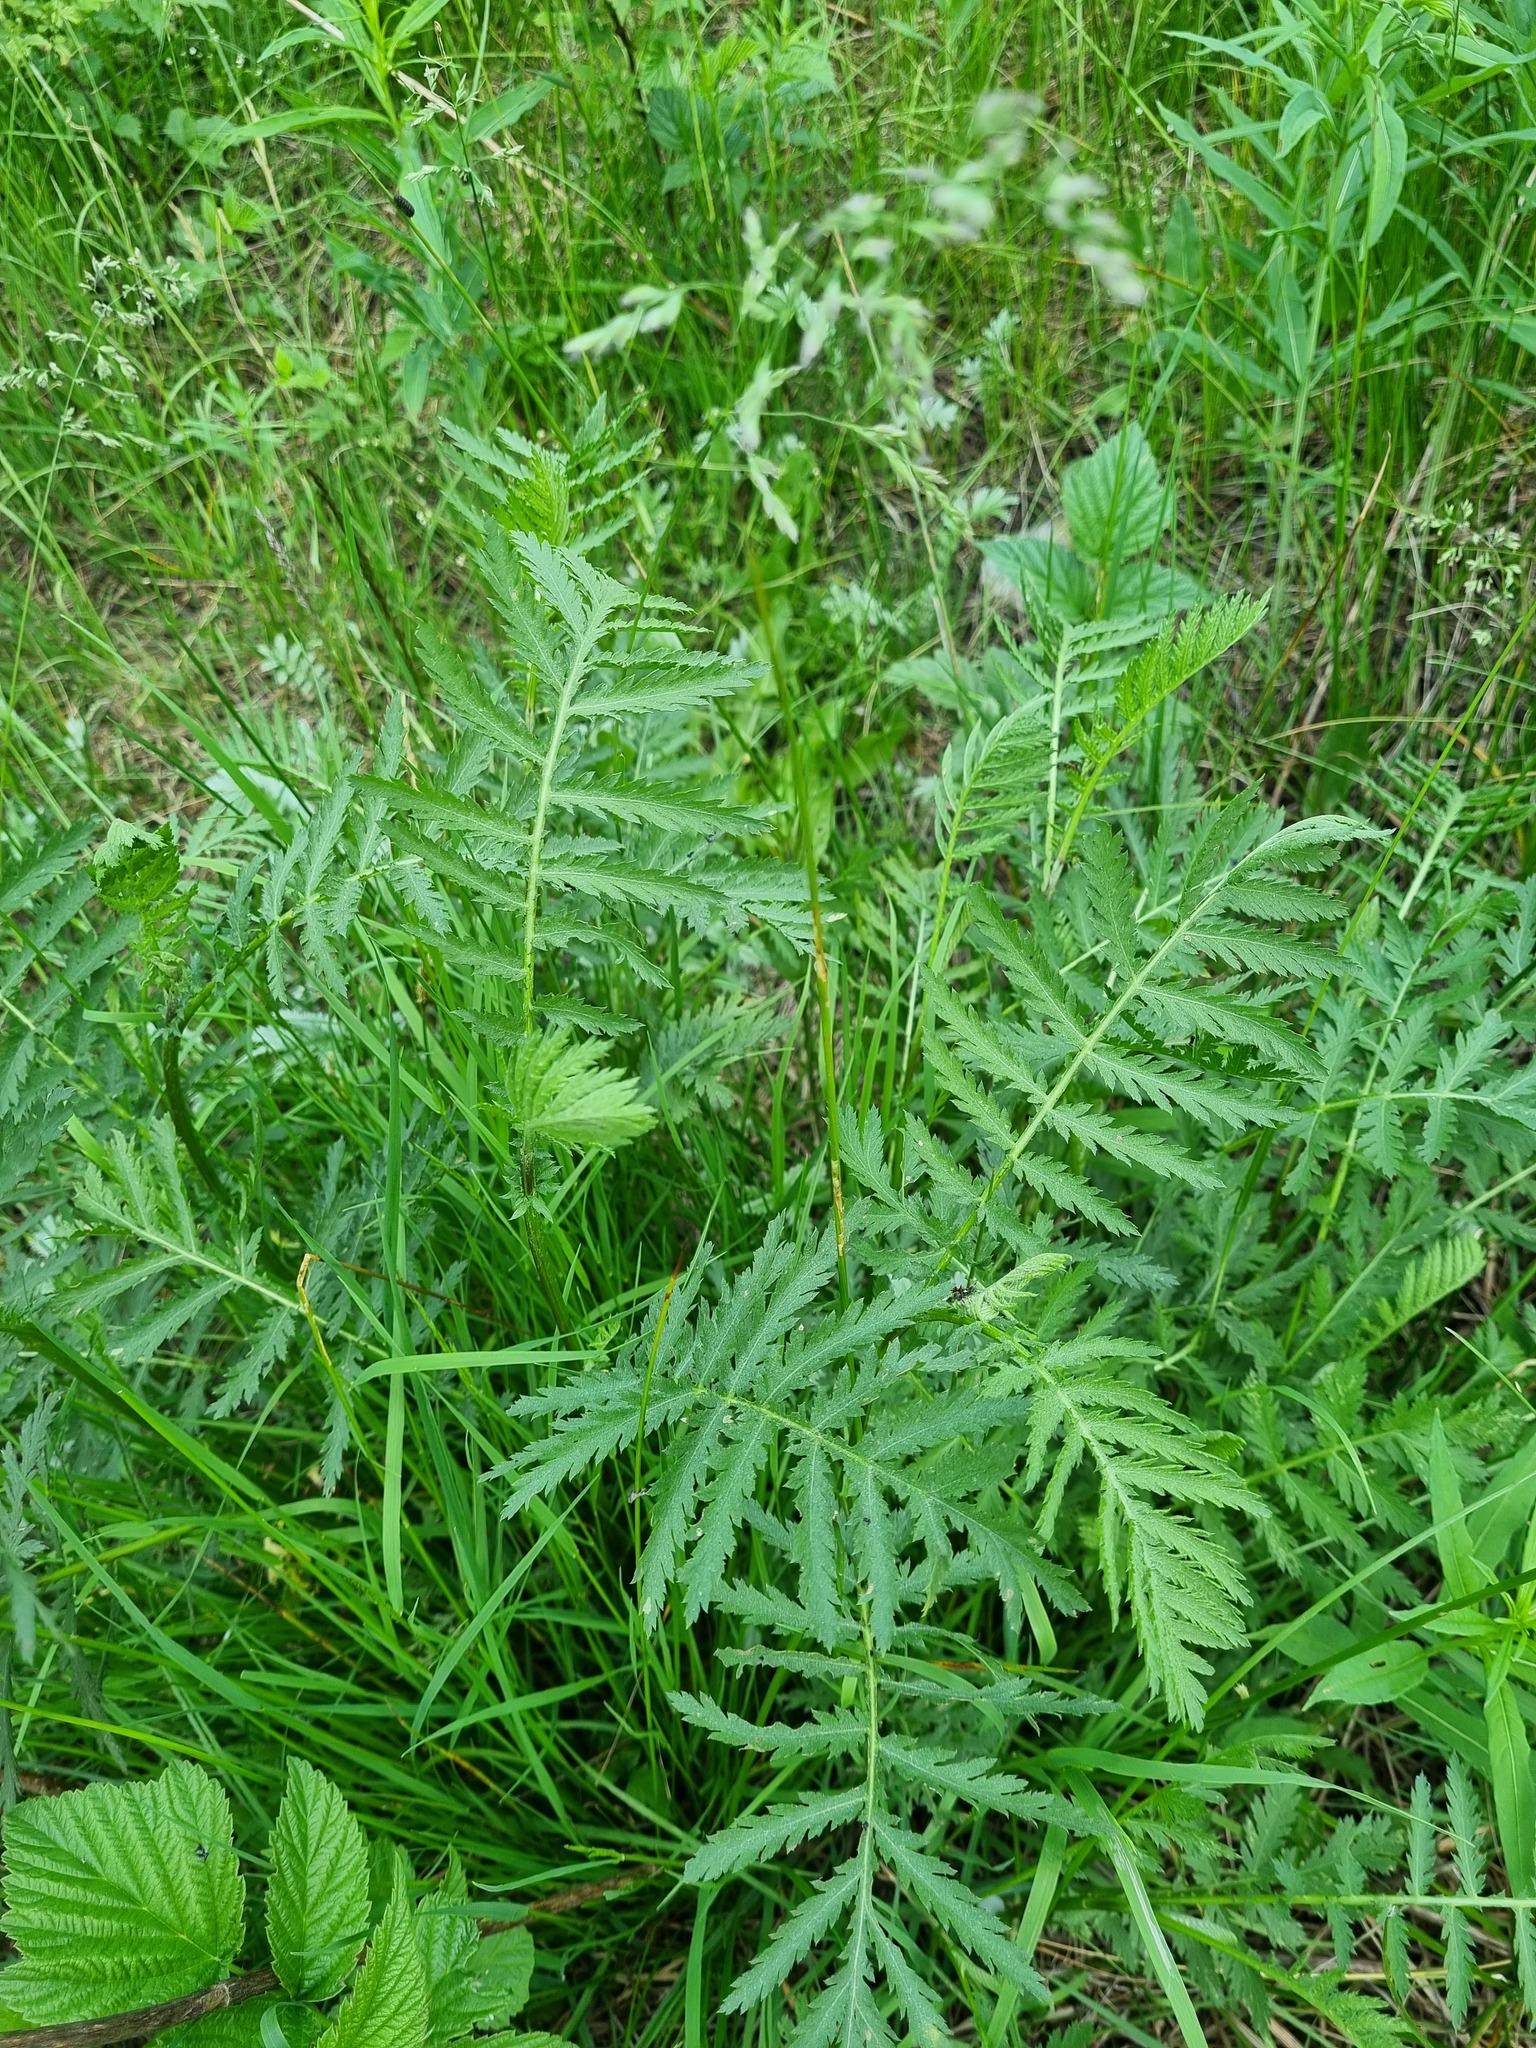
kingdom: Plantae
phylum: Tracheophyta
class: Magnoliopsida
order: Asterales
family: Asteraceae
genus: Tanacetum
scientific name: Tanacetum vulgare
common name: Common tansy
